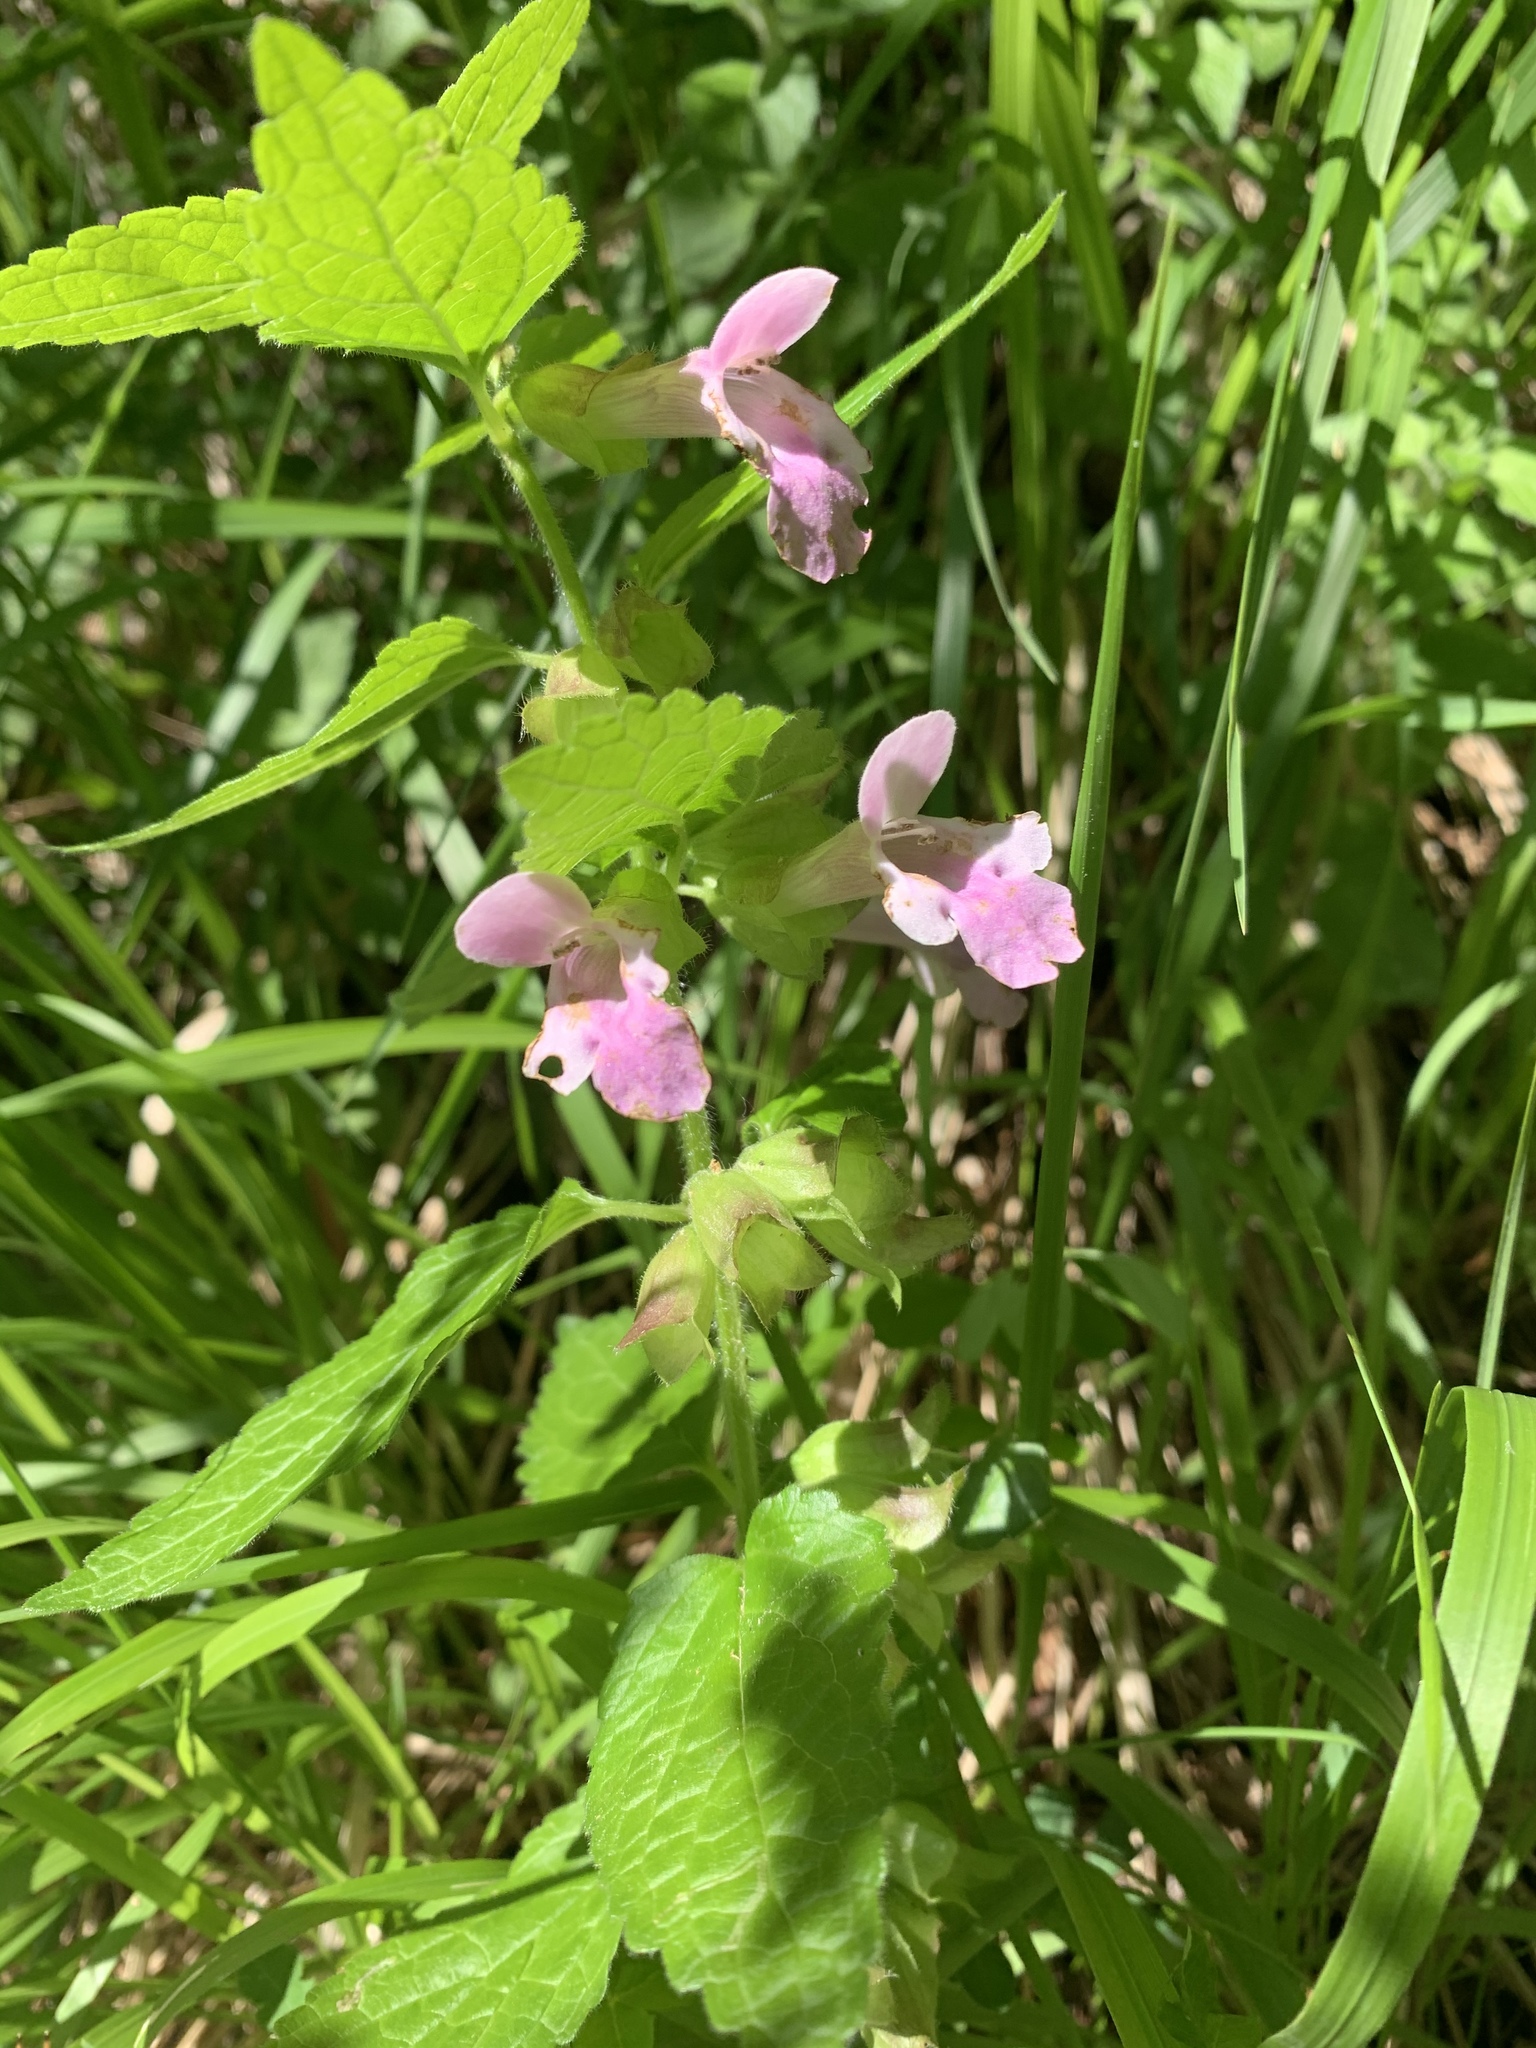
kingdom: Plantae
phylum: Tracheophyta
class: Magnoliopsida
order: Lamiales
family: Lamiaceae
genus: Melittis
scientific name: Melittis melissophyllum
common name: Bastard balm
